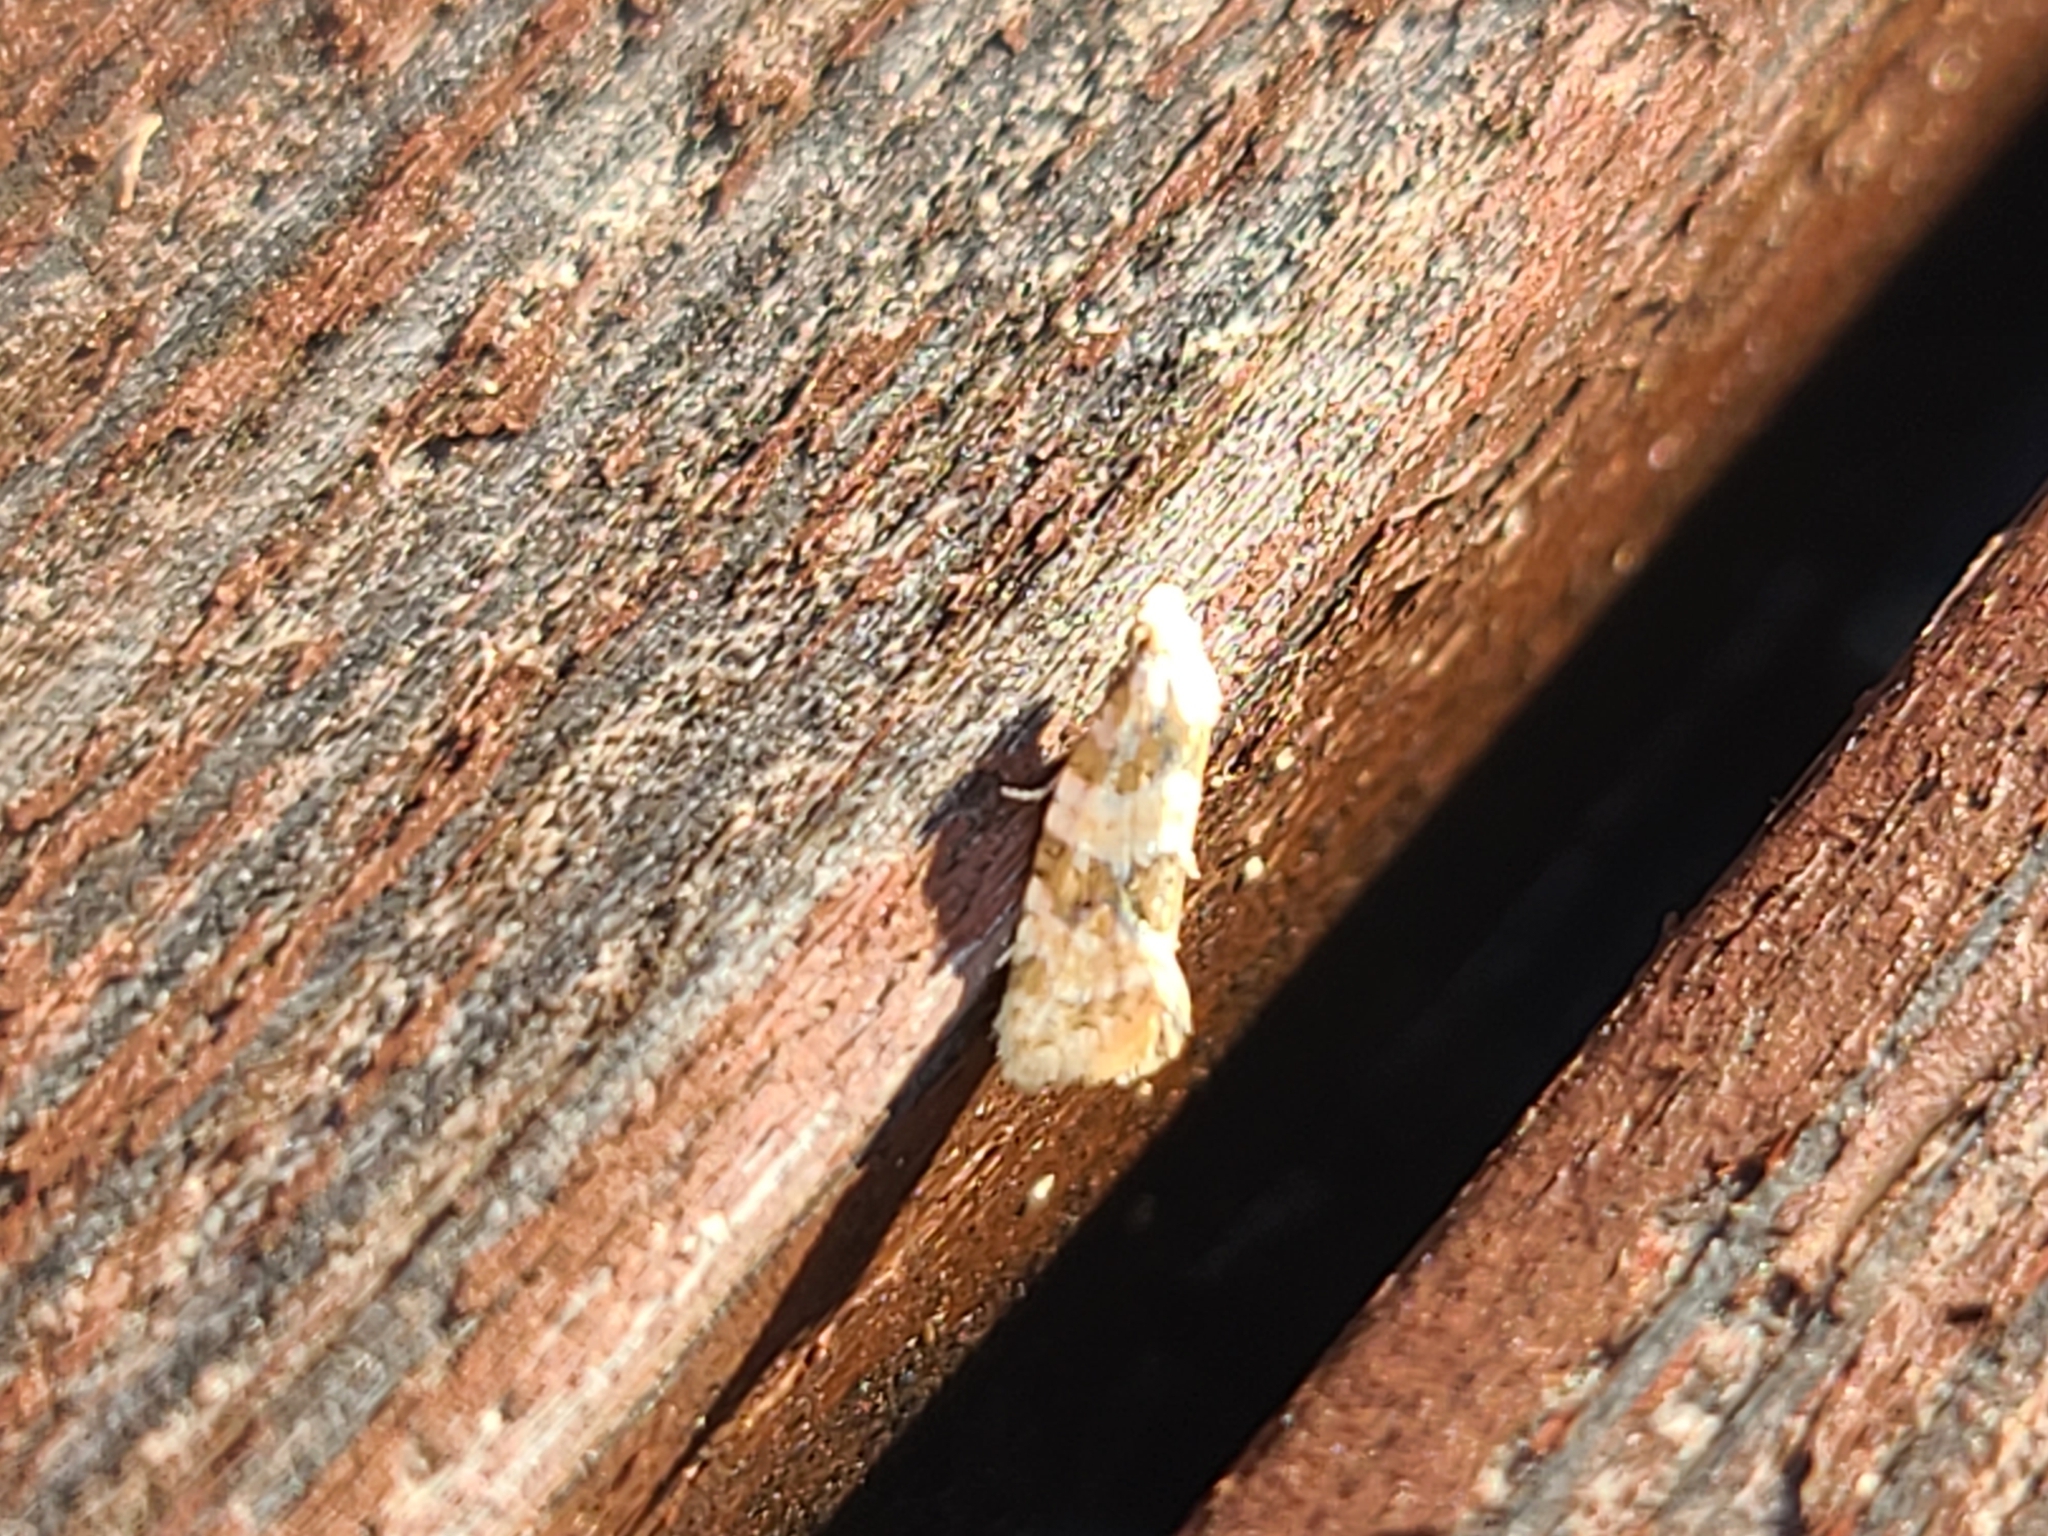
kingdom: Animalia
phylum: Arthropoda
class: Insecta
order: Lepidoptera
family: Tortricidae
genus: Aethes
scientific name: Aethes argentilimitana
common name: Silver-bordered aethes
